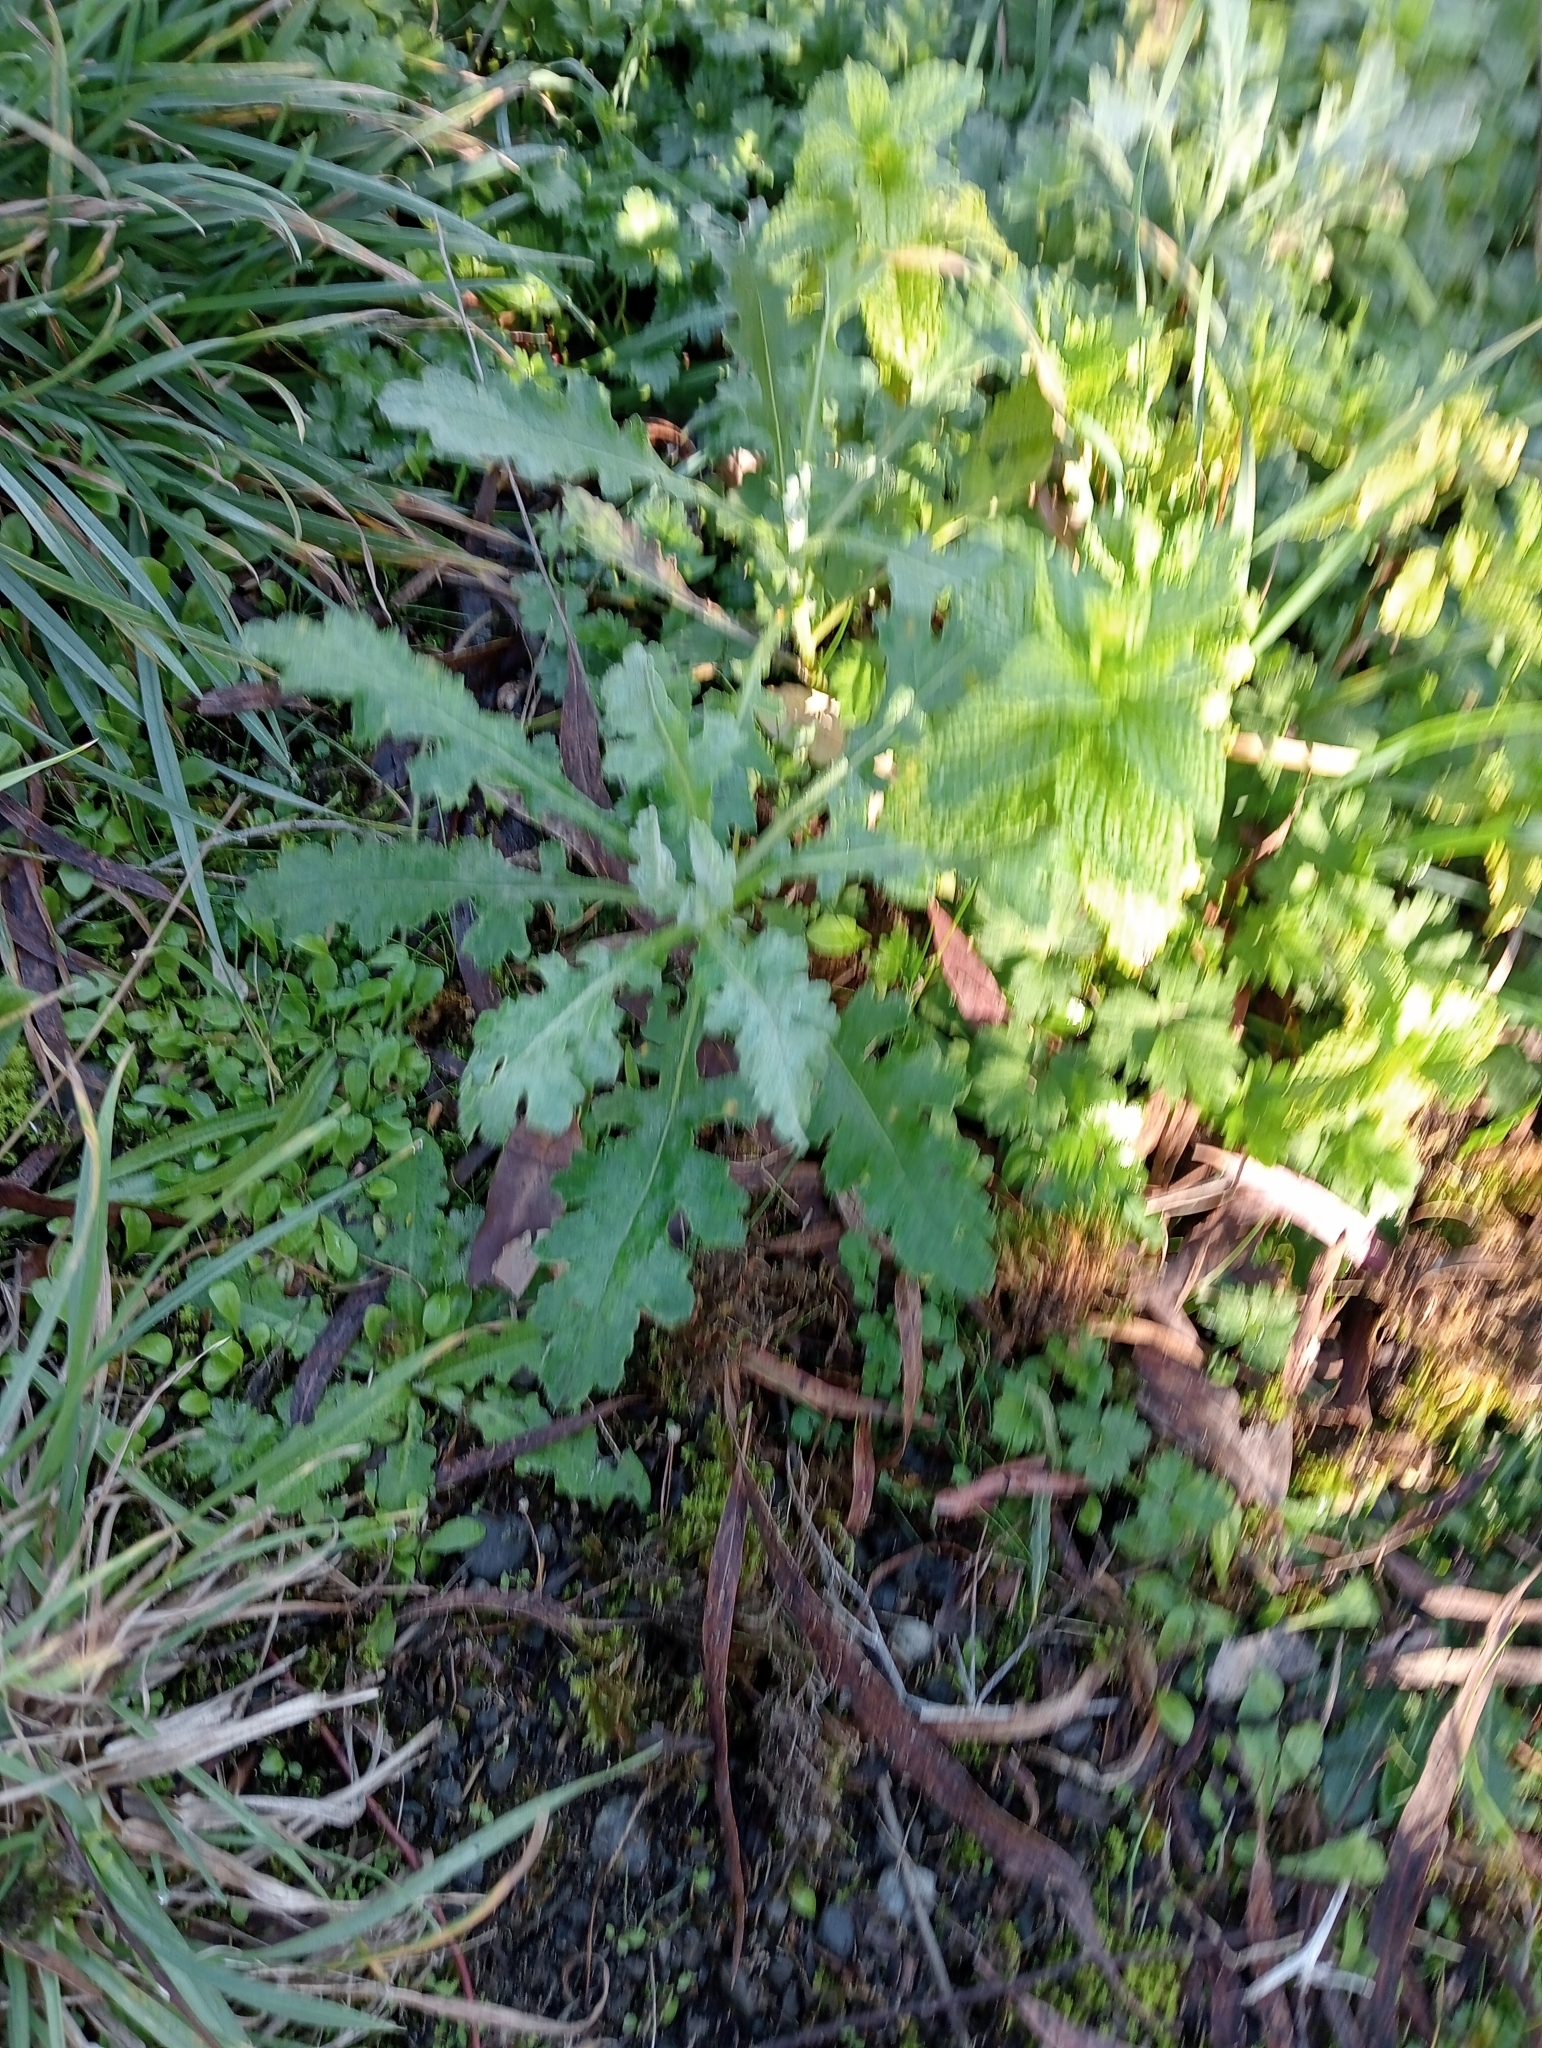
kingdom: Plantae
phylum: Tracheophyta
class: Magnoliopsida
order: Asterales
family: Asteraceae
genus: Senecio
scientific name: Senecio glomeratus
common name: Cutleaf burnweed
